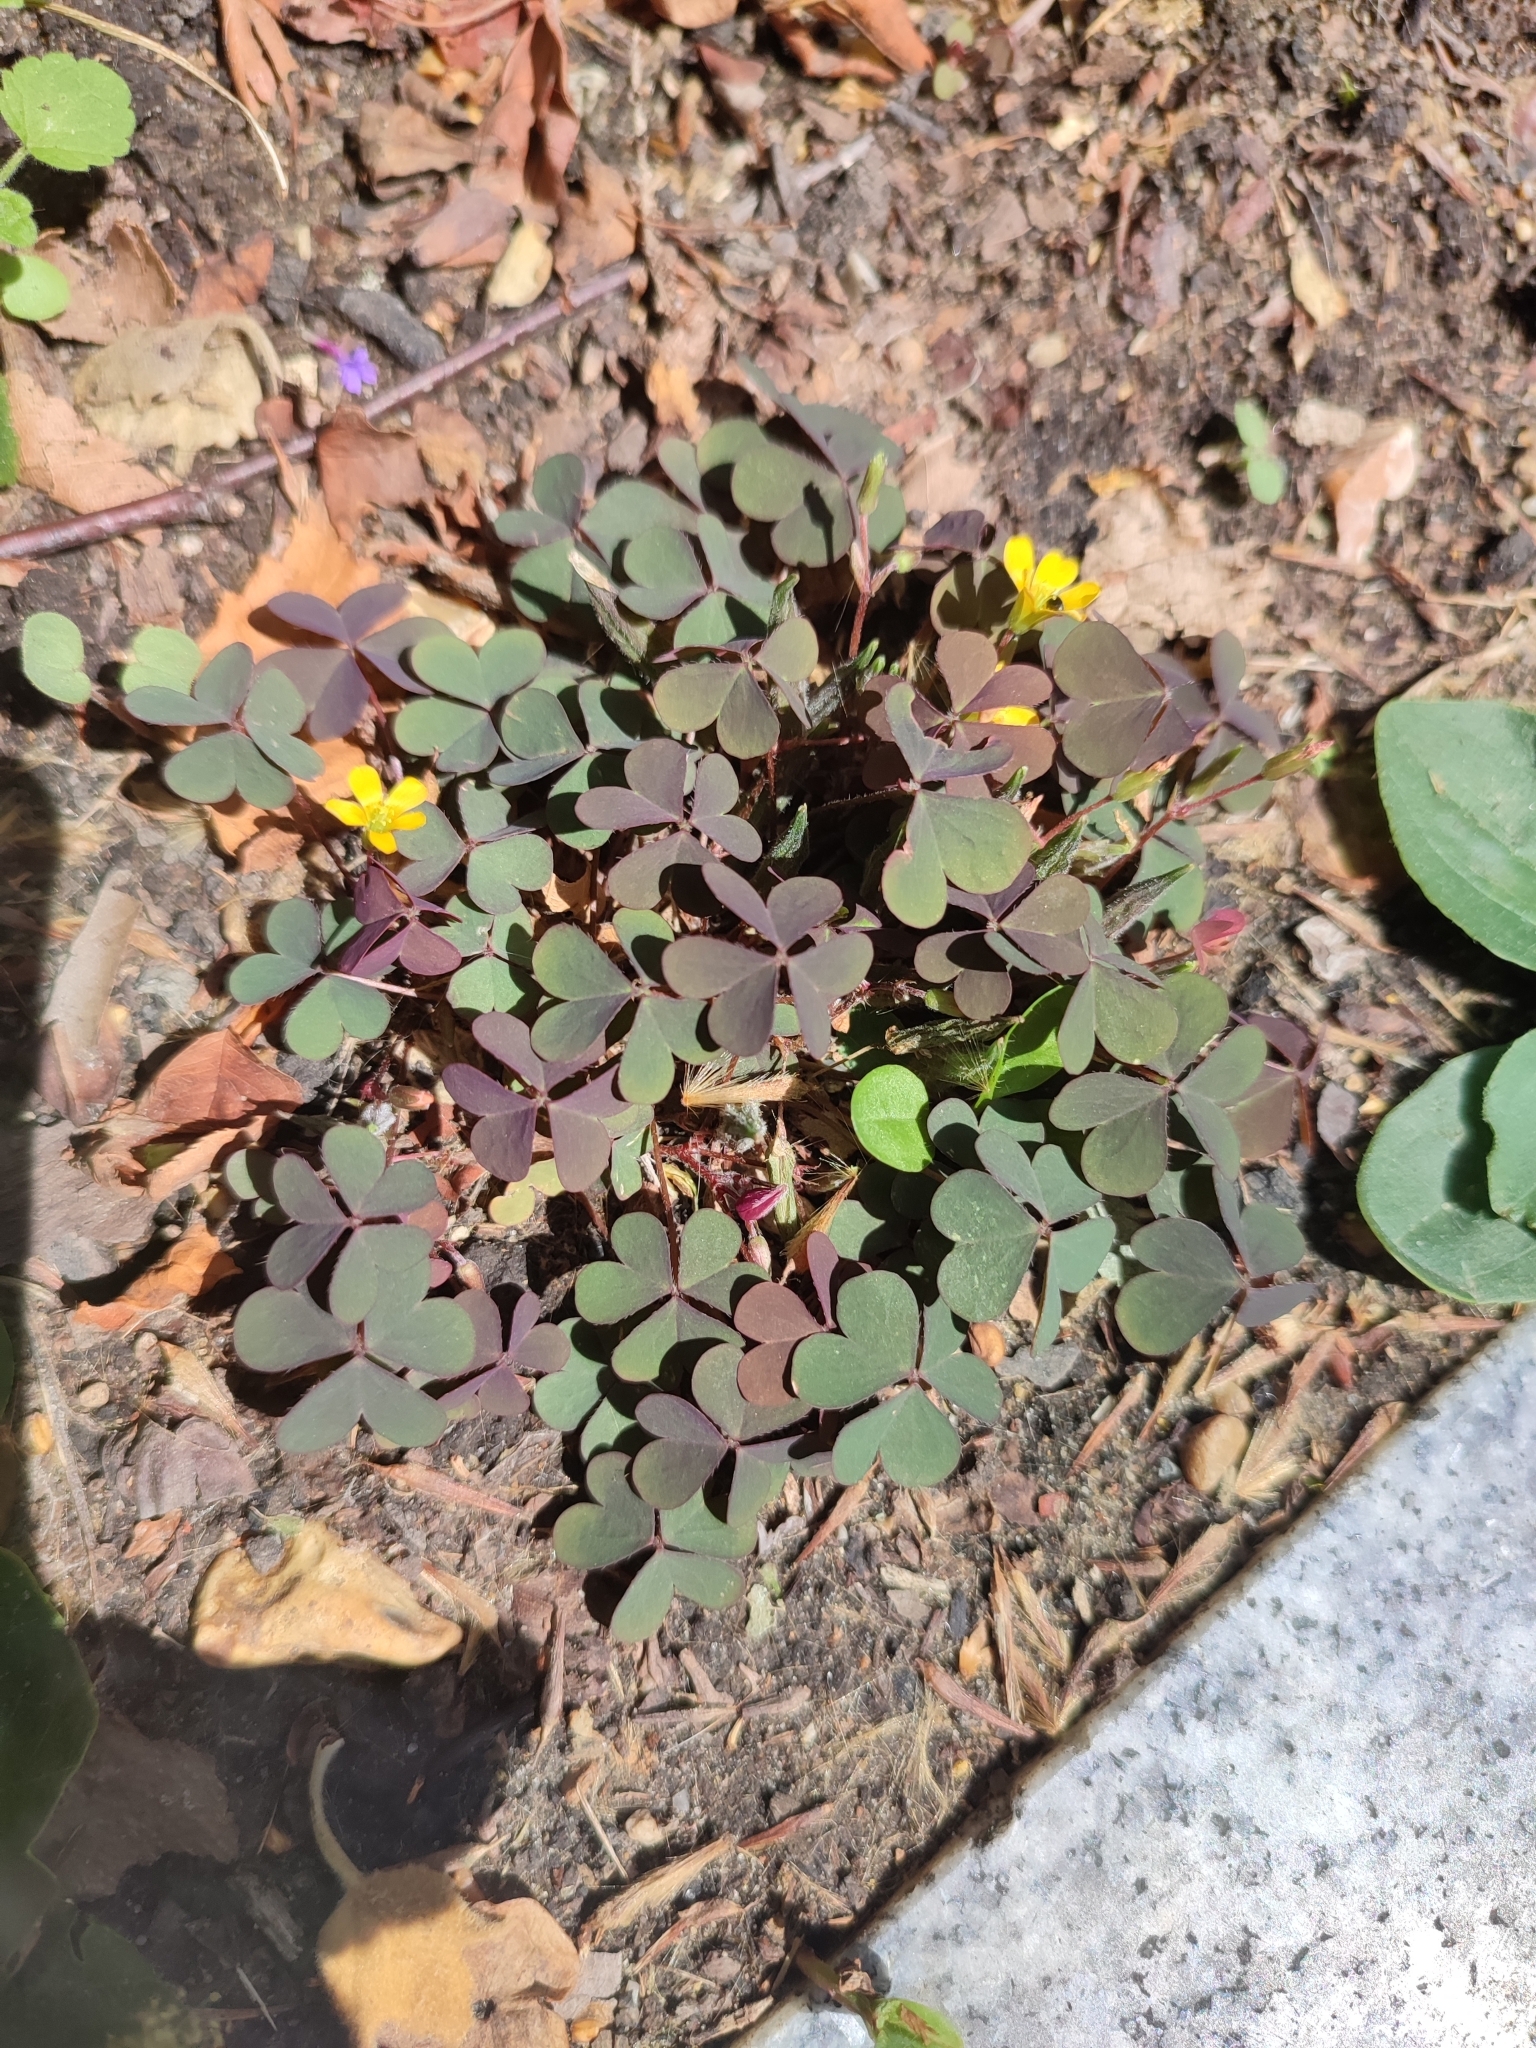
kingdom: Plantae
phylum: Tracheophyta
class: Magnoliopsida
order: Oxalidales
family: Oxalidaceae
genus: Oxalis
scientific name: Oxalis corniculata
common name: Procumbent yellow-sorrel
